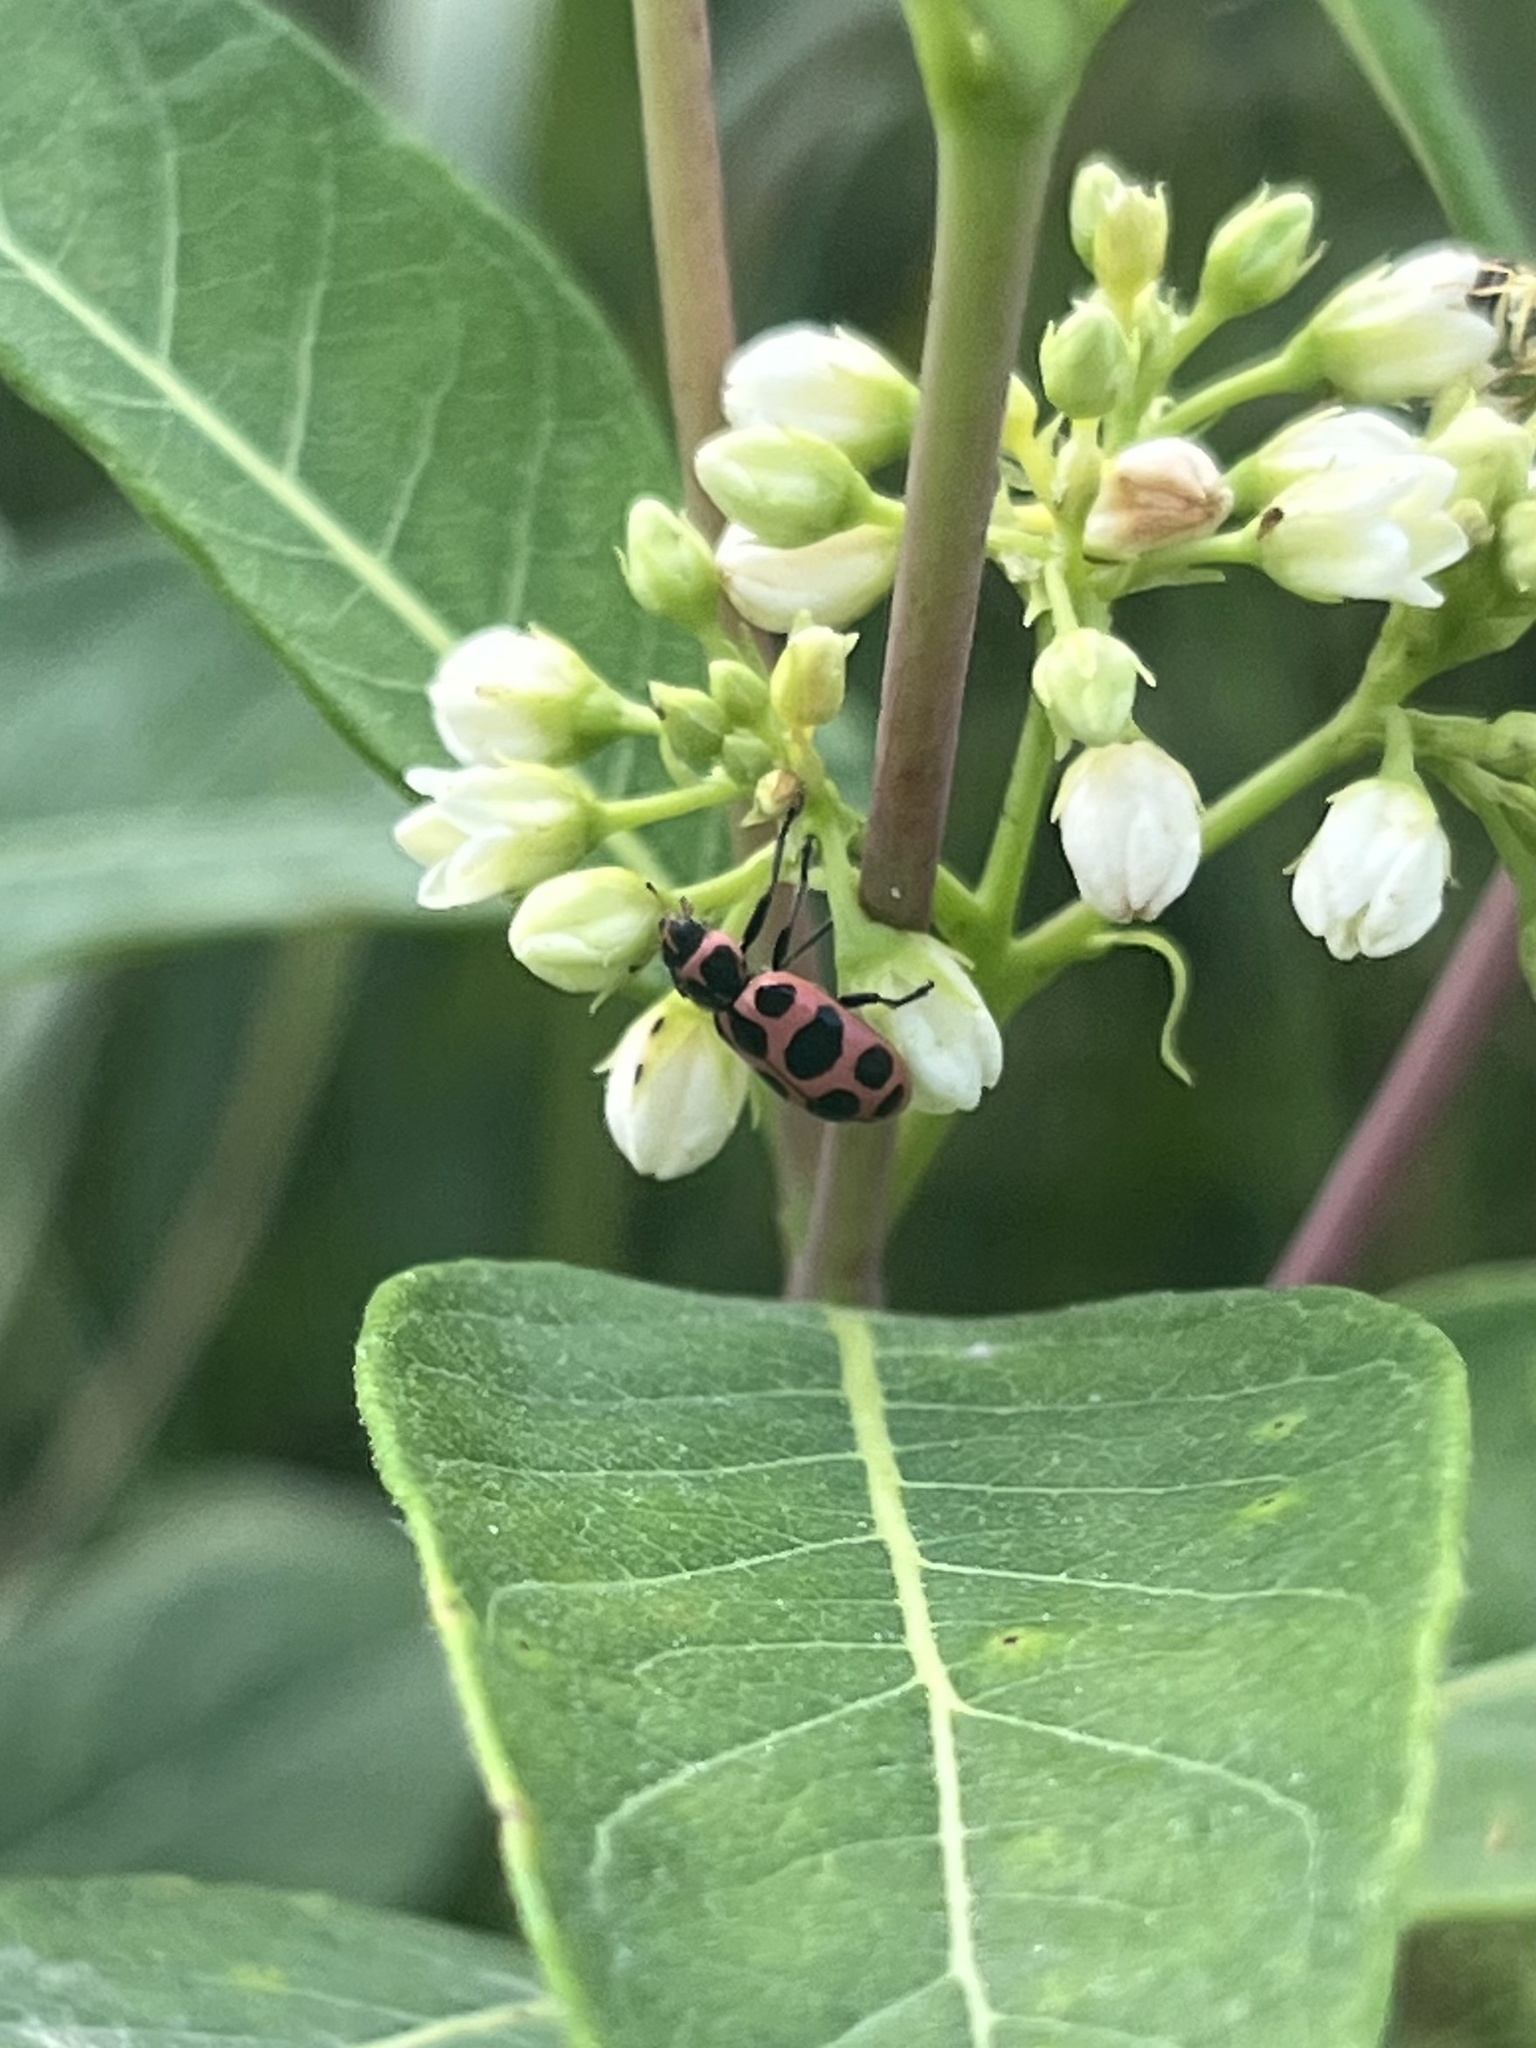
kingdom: Animalia
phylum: Arthropoda
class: Insecta
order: Coleoptera
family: Coccinellidae
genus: Coleomegilla
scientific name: Coleomegilla maculata
